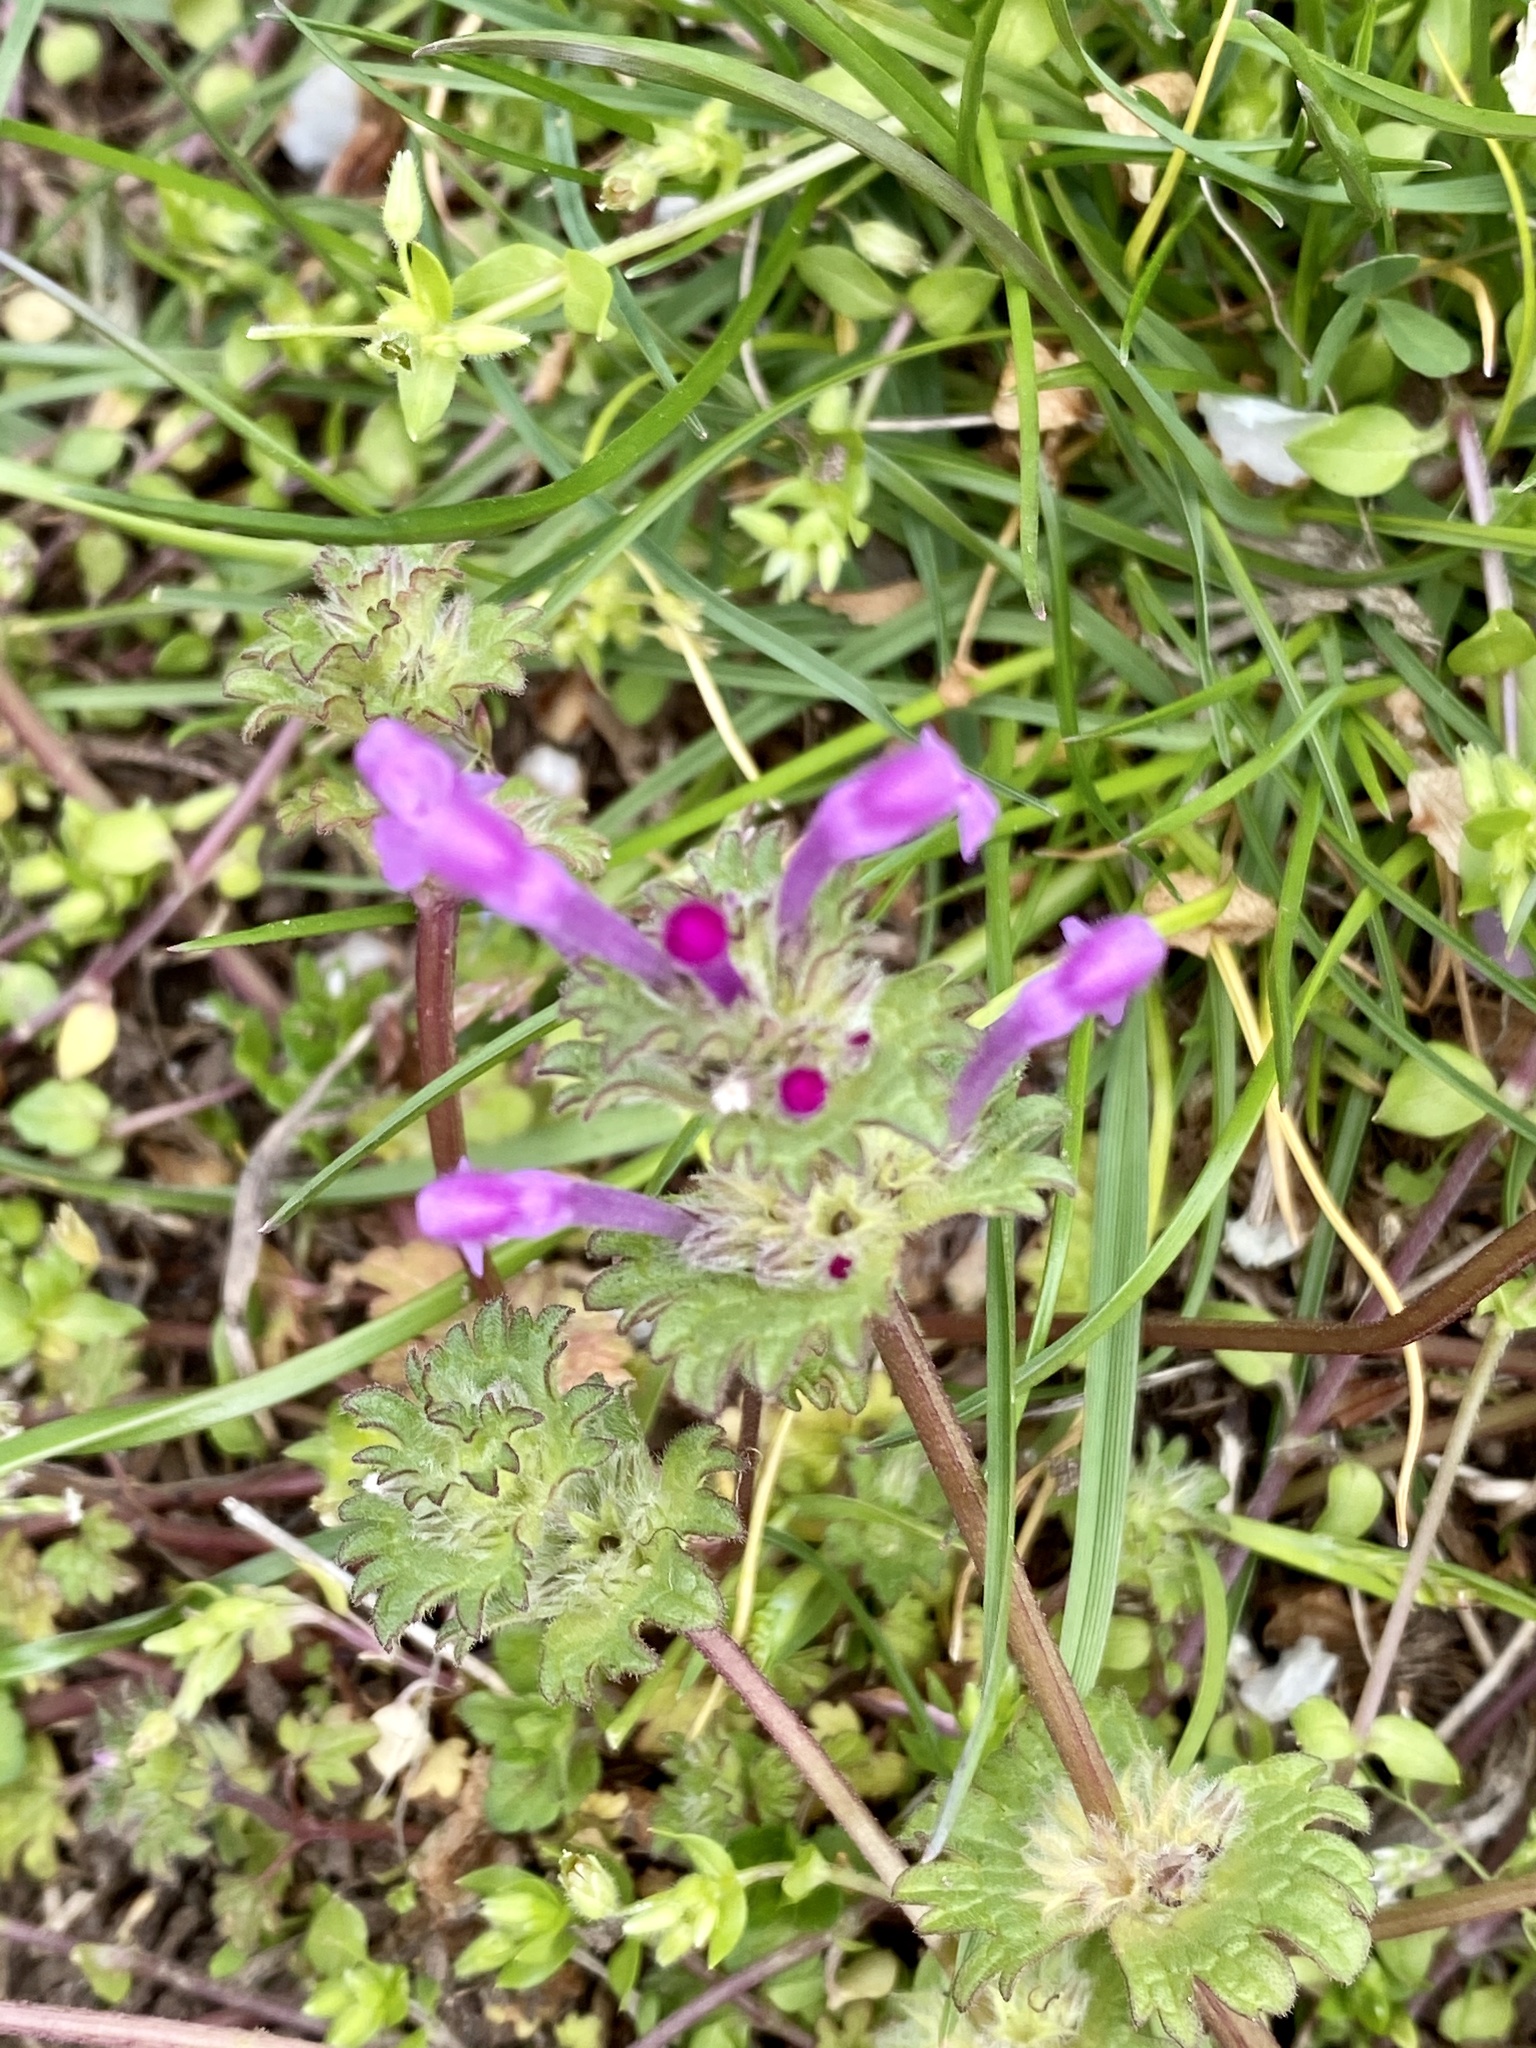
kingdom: Plantae
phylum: Tracheophyta
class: Magnoliopsida
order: Lamiales
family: Lamiaceae
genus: Lamium
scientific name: Lamium amplexicaule
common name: Henbit dead-nettle
